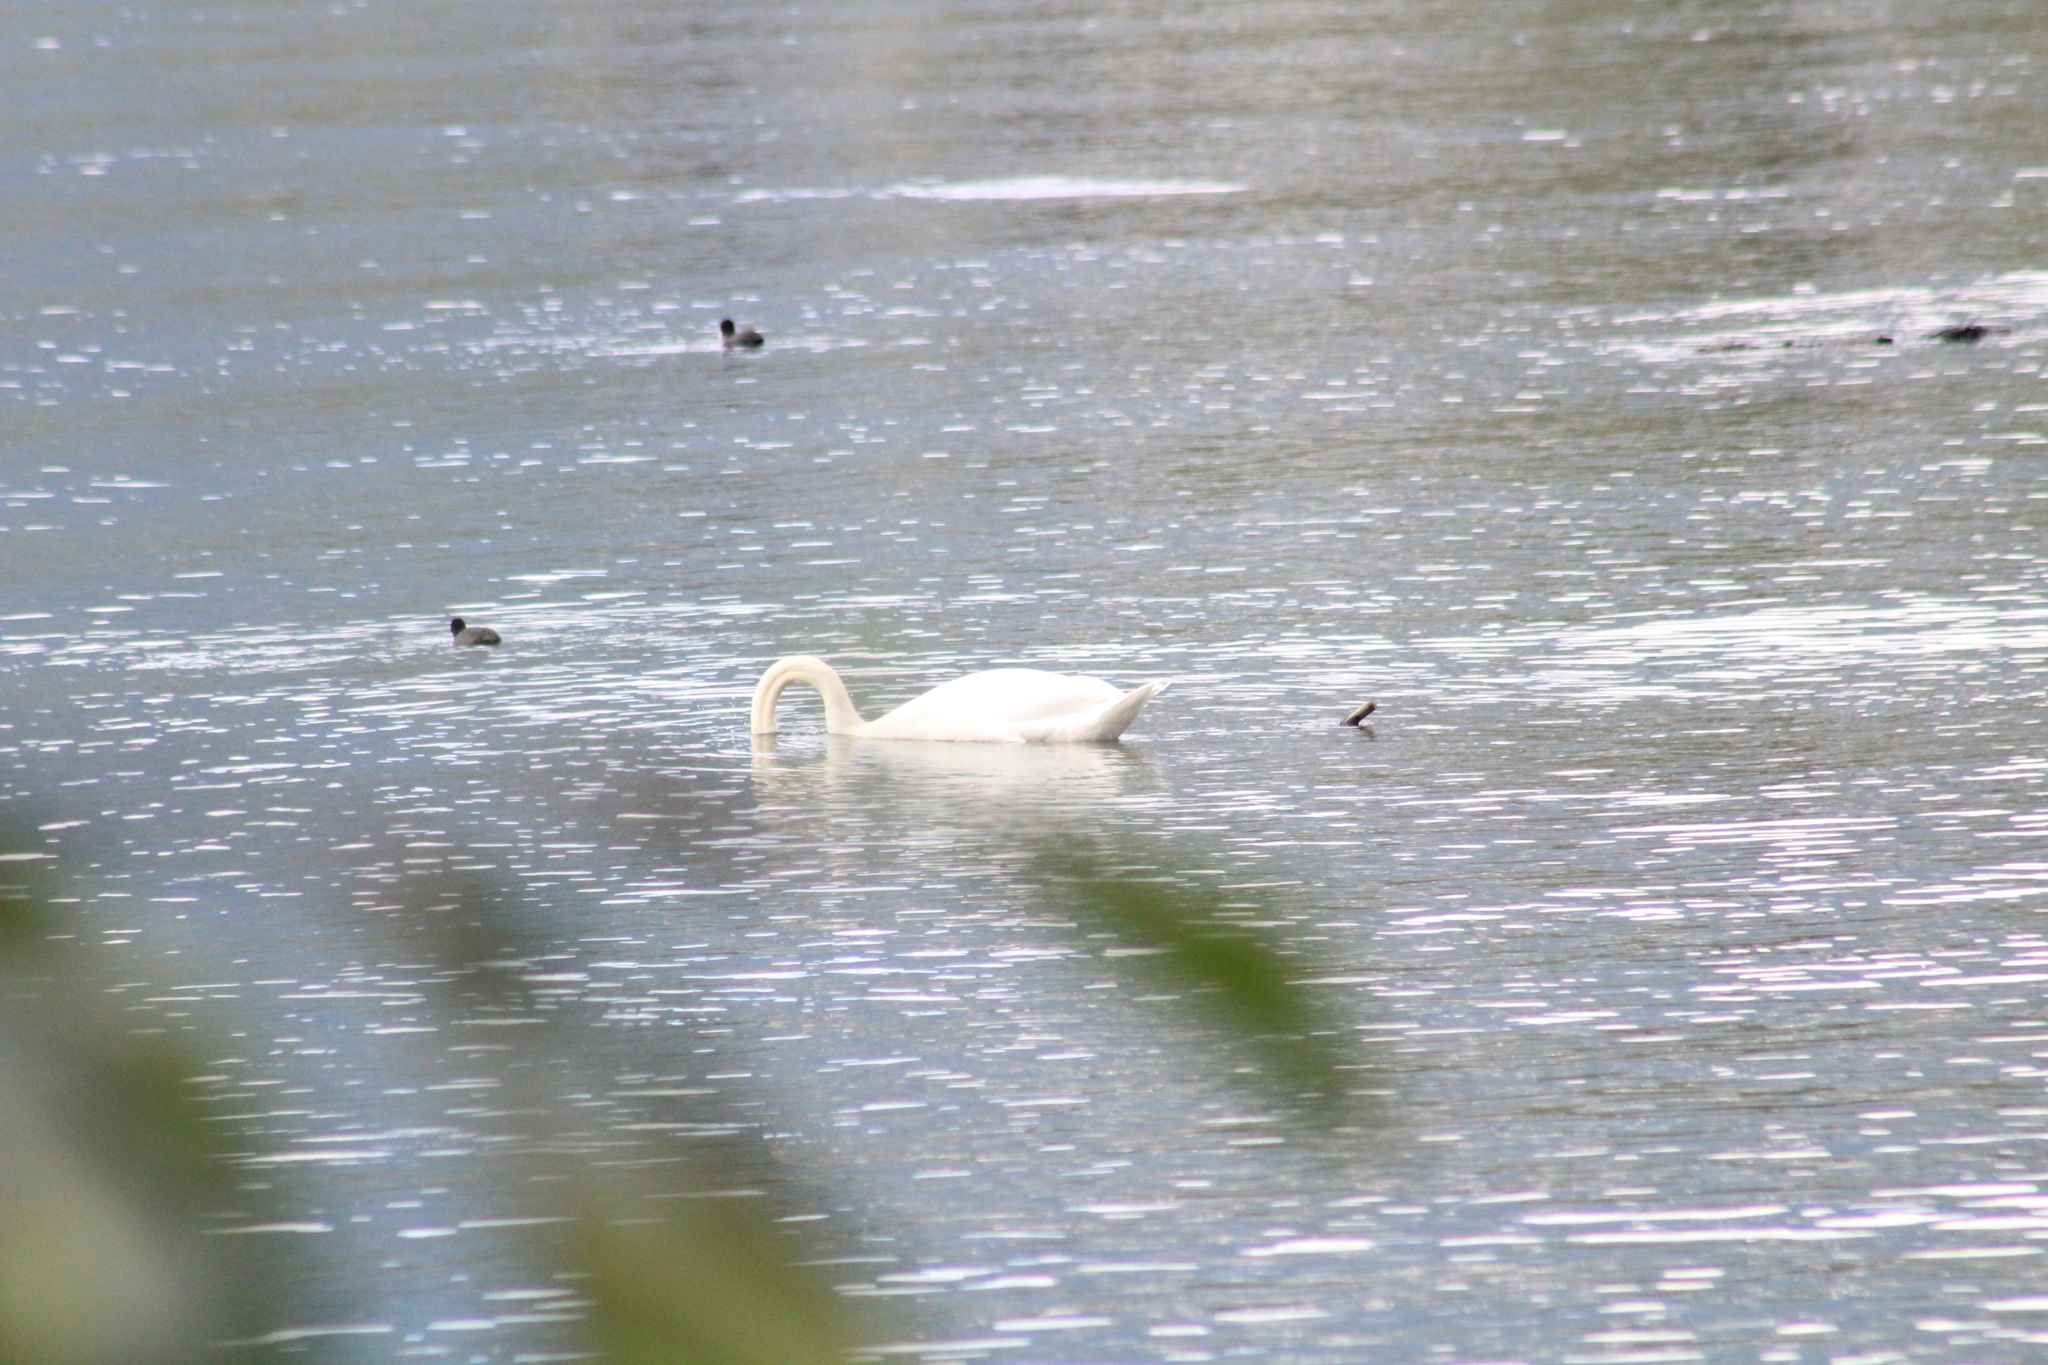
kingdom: Animalia
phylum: Chordata
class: Aves
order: Anseriformes
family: Anatidae
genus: Cygnus
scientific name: Cygnus olor
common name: Mute swan
